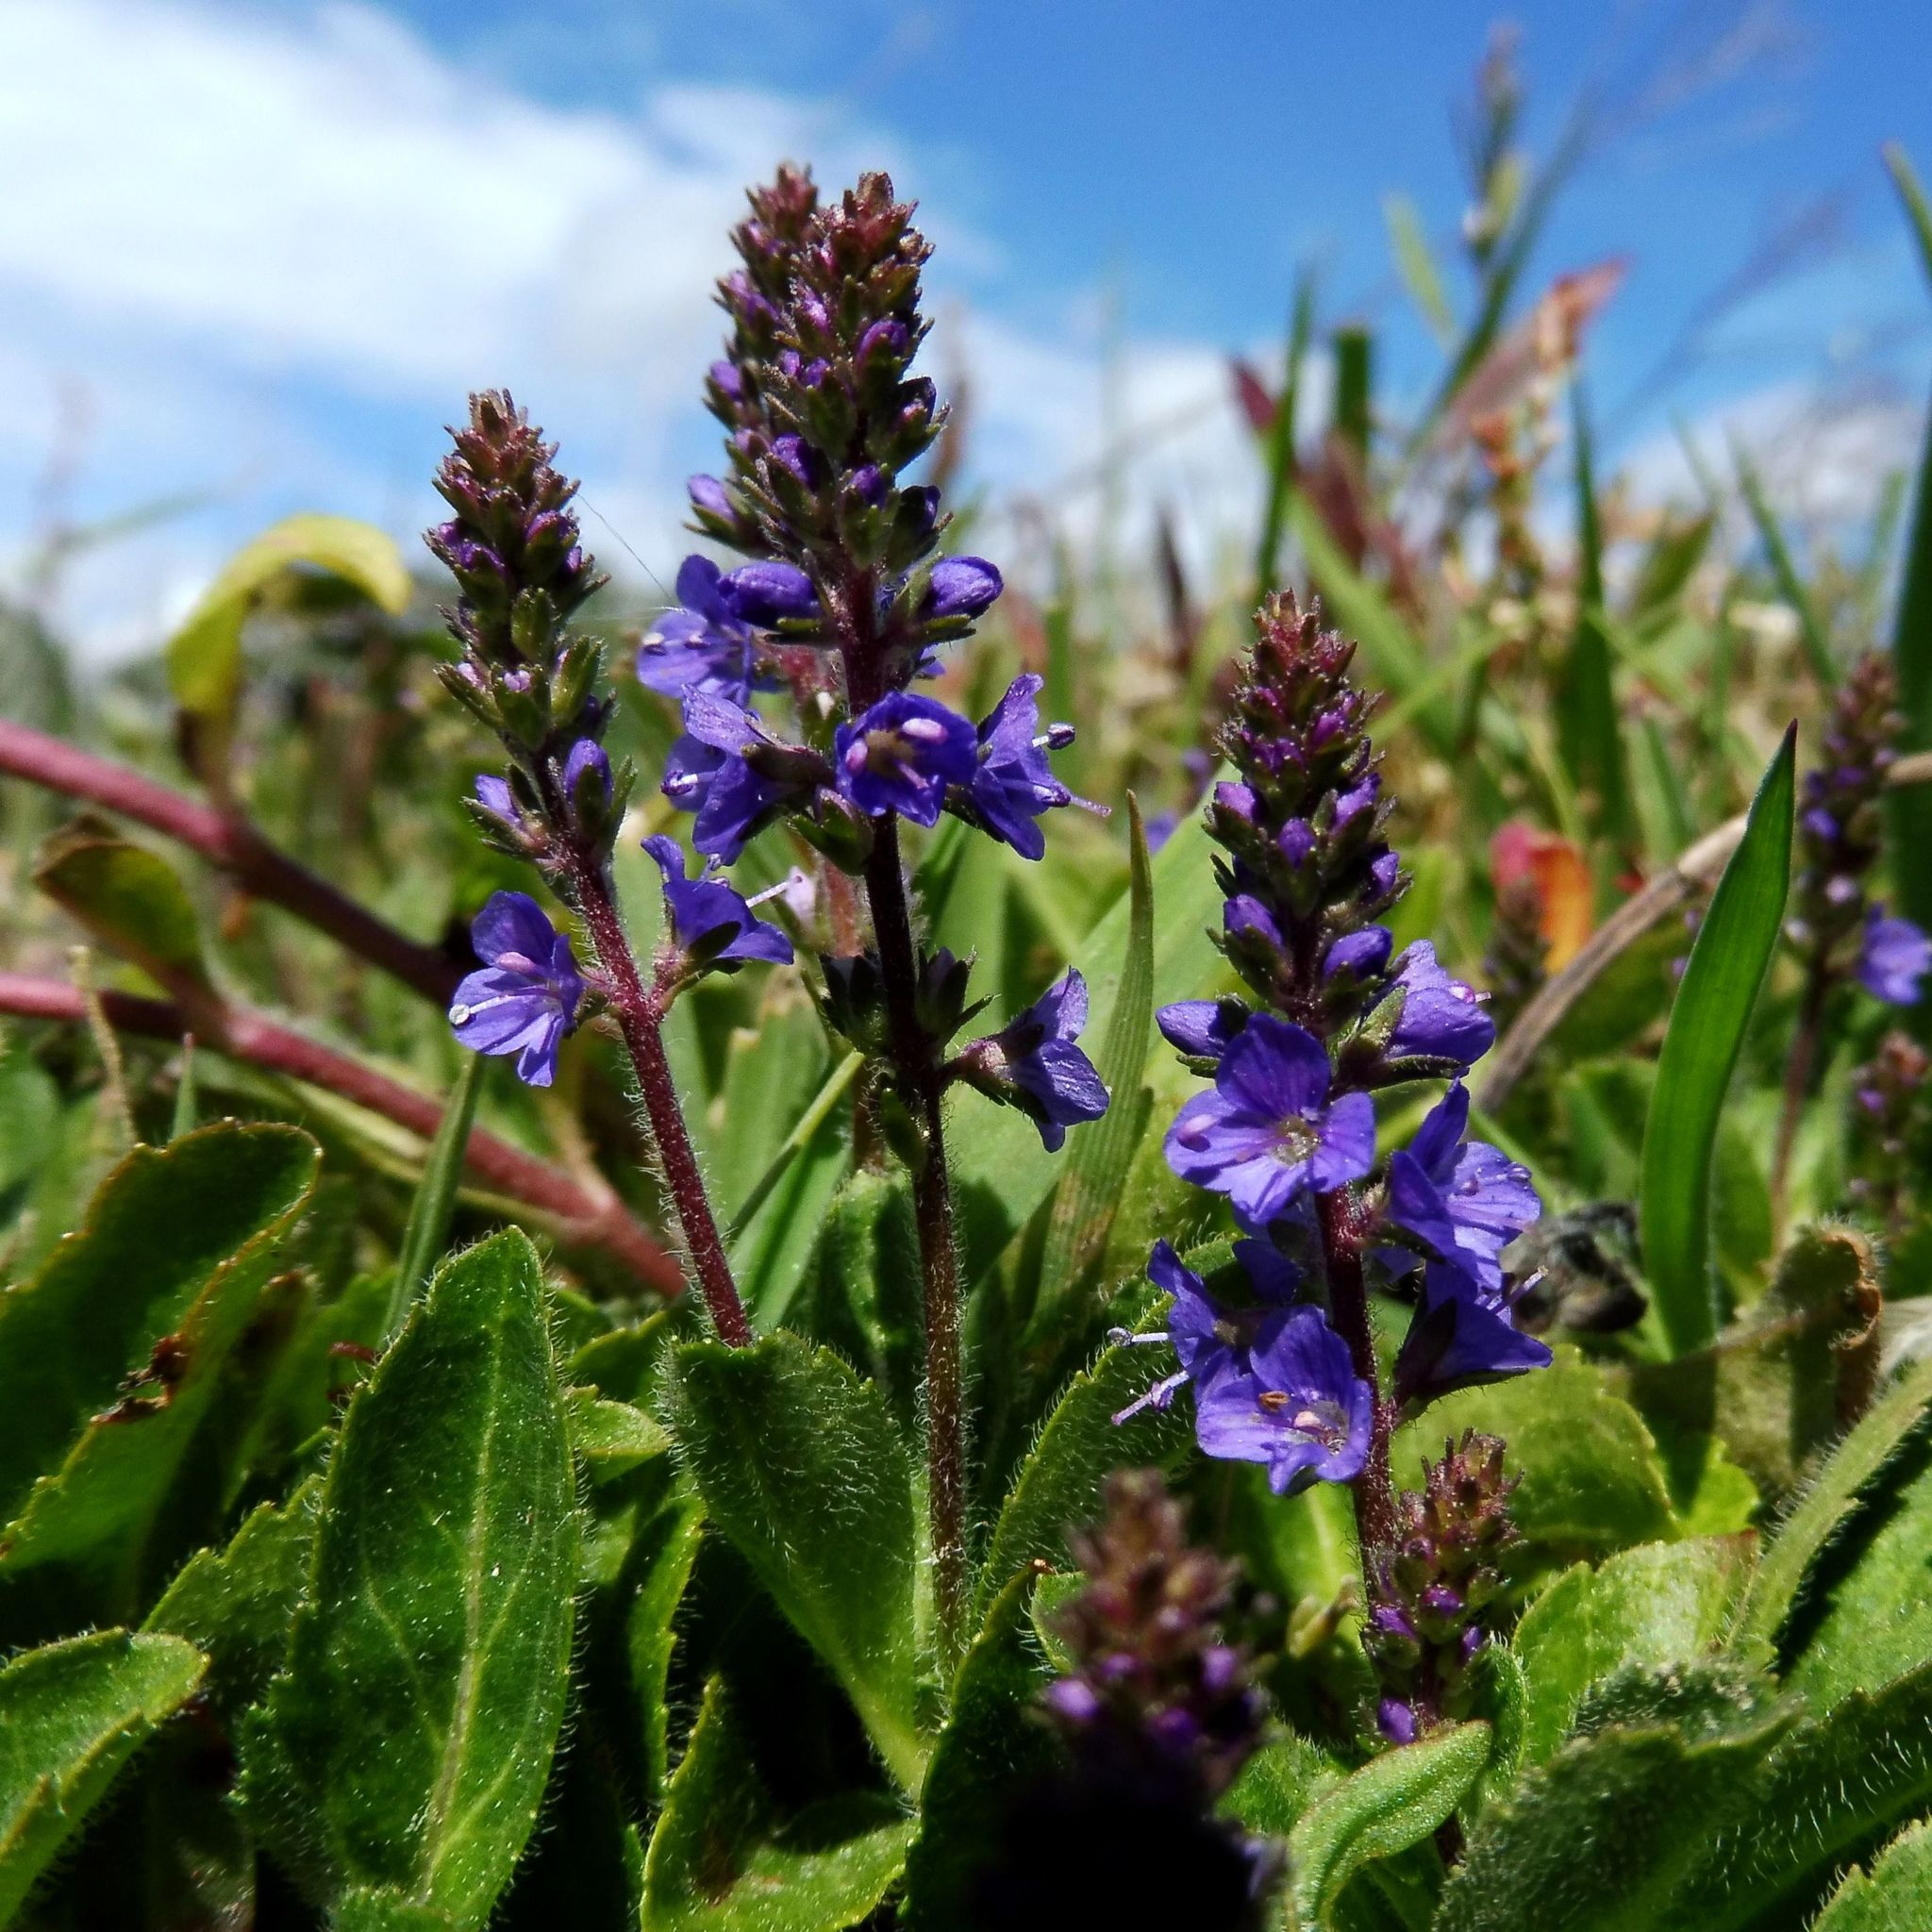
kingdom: Plantae
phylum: Tracheophyta
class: Magnoliopsida
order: Lamiales
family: Plantaginaceae
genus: Veronica
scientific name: Veronica officinalis
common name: Common speedwell
